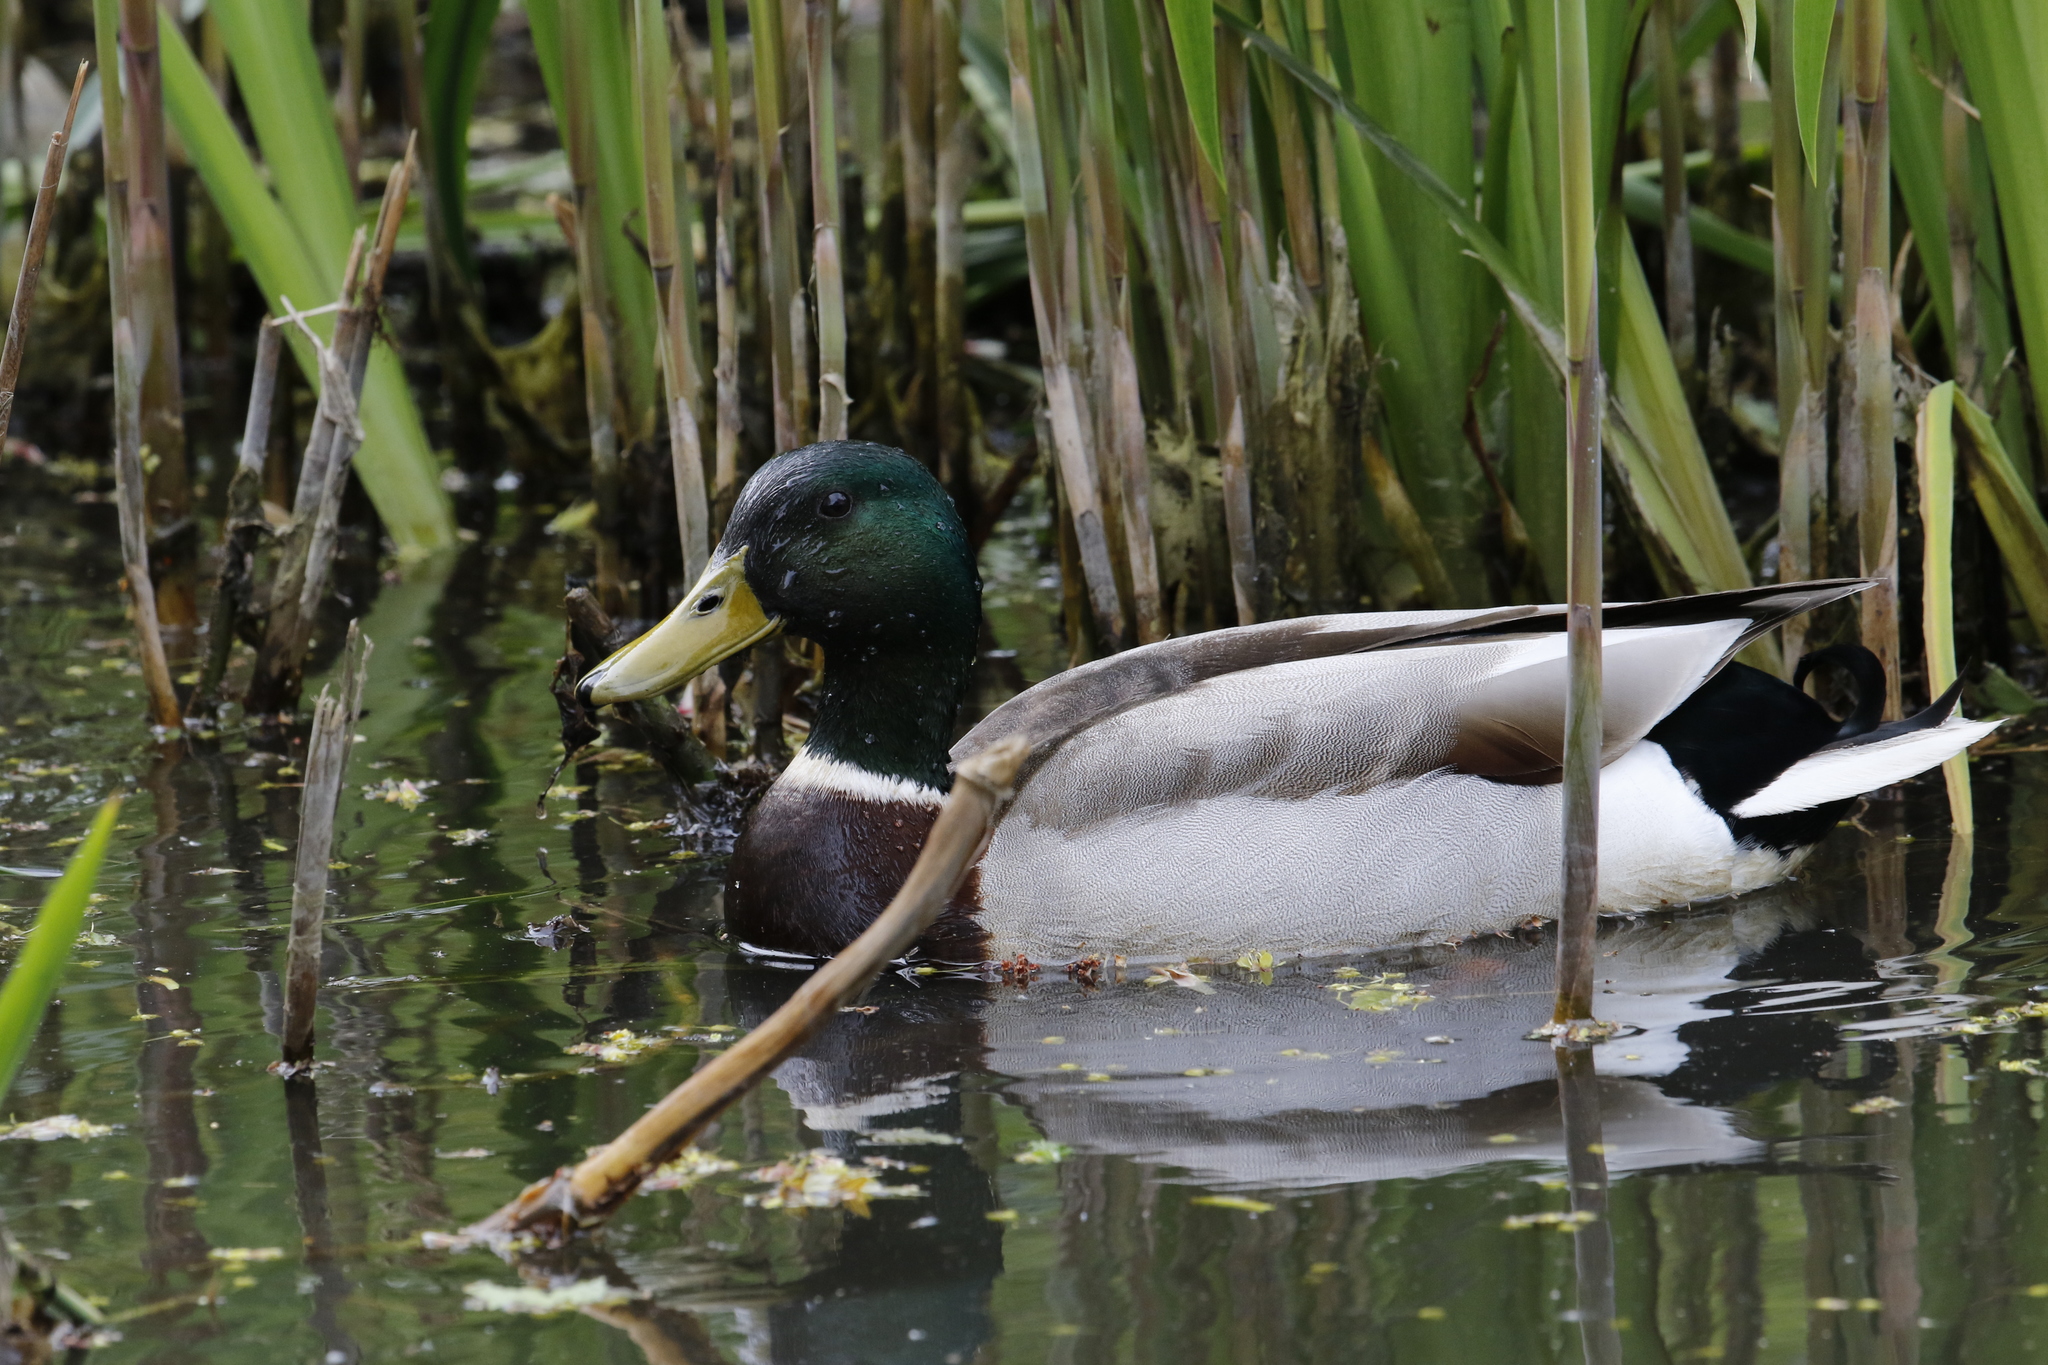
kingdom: Animalia
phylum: Chordata
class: Aves
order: Anseriformes
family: Anatidae
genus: Anas
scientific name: Anas platyrhynchos
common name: Mallard
